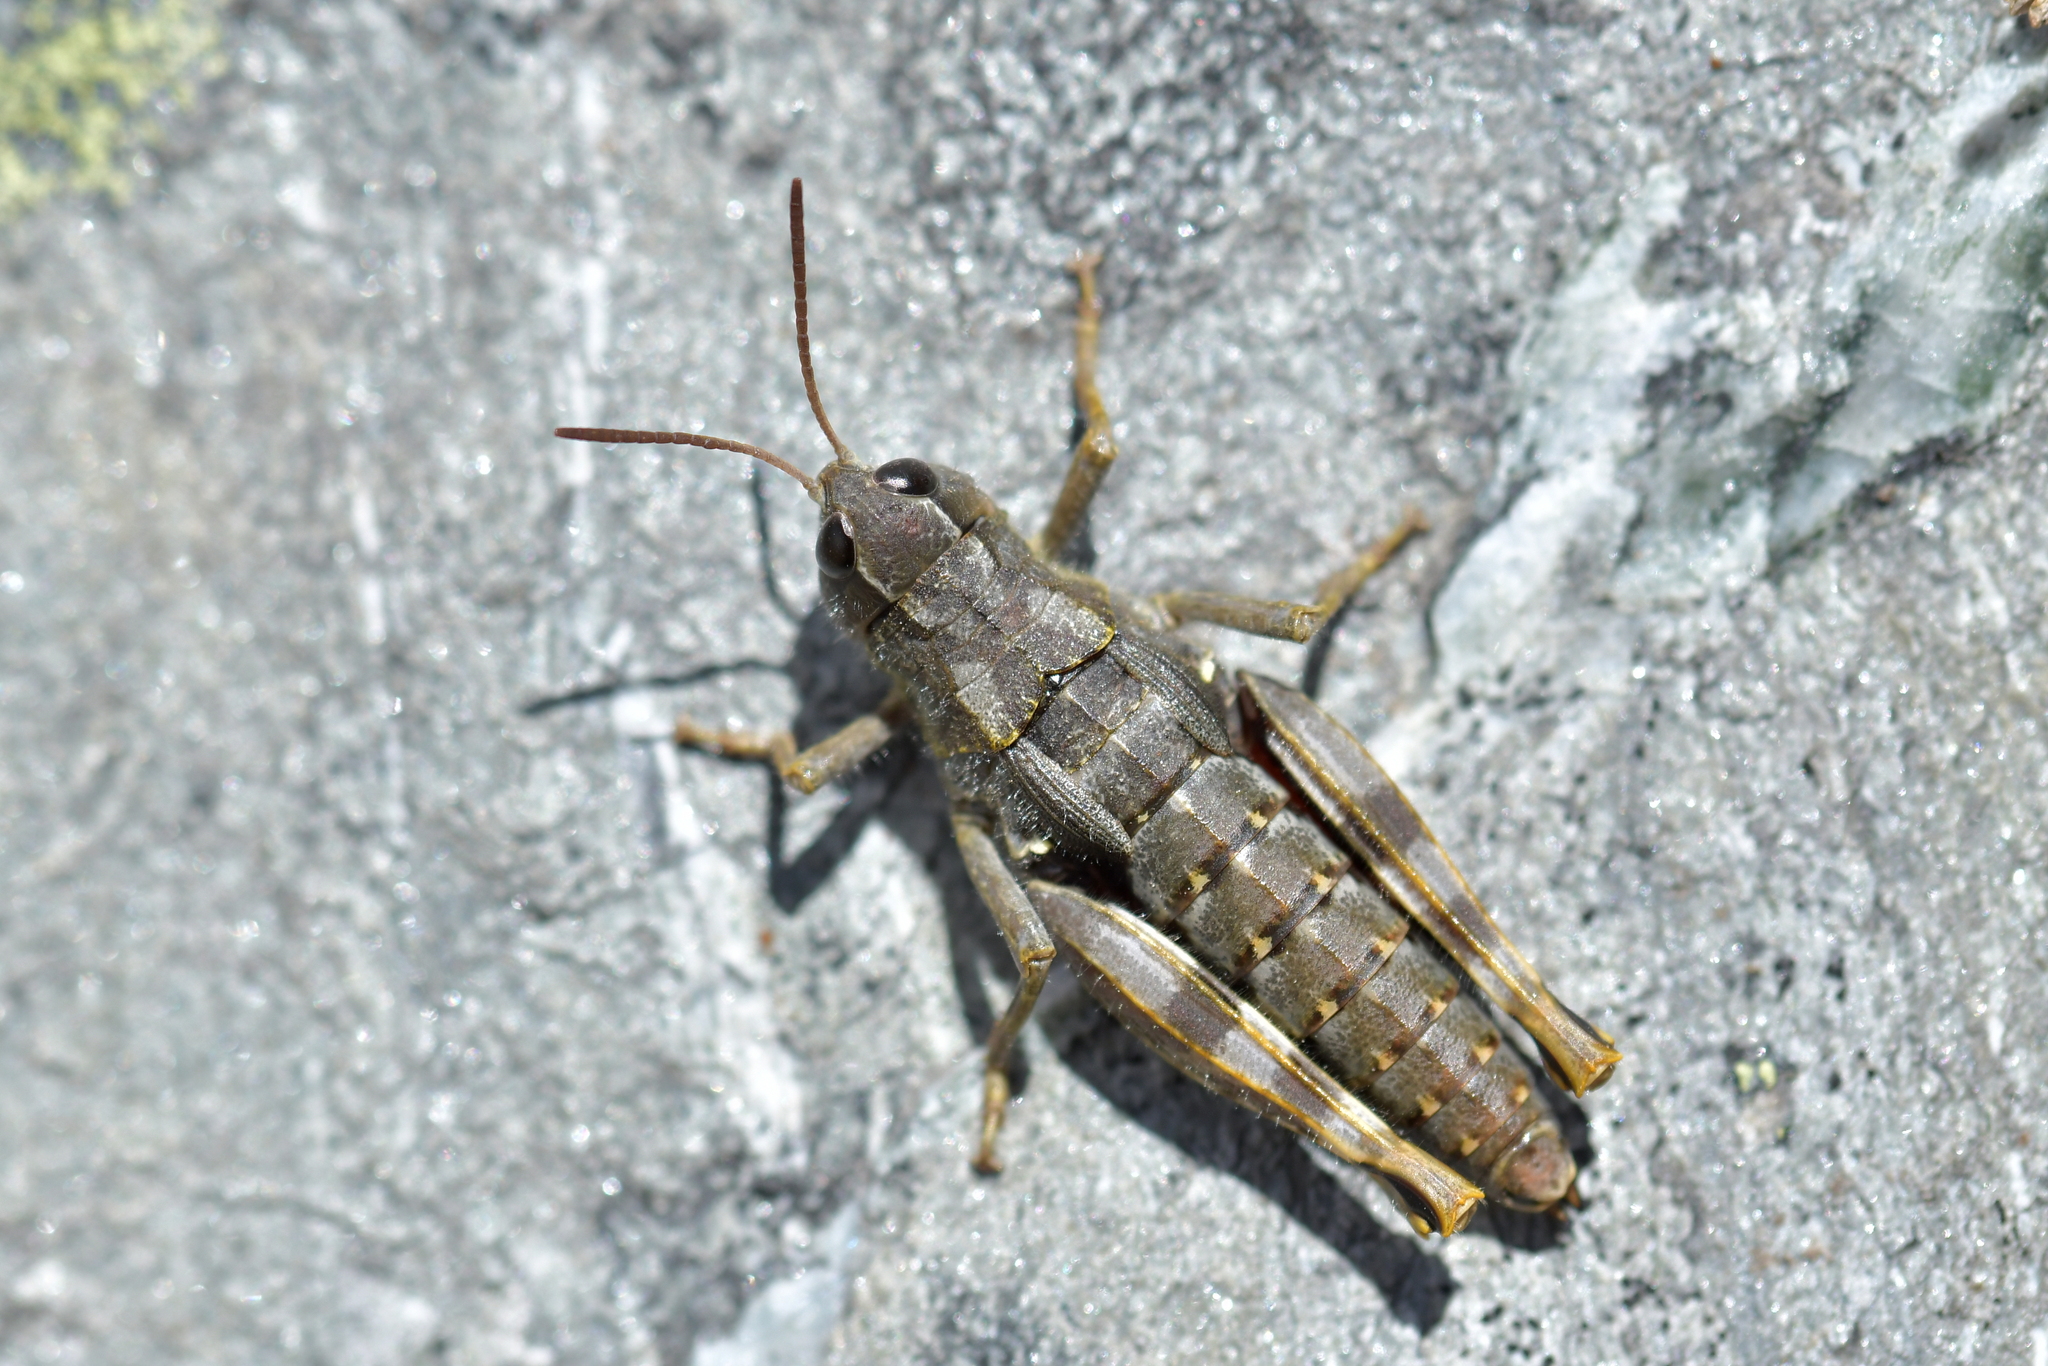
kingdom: Animalia
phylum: Arthropoda
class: Insecta
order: Orthoptera
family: Acrididae
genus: Sigaus
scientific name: Sigaus australis
